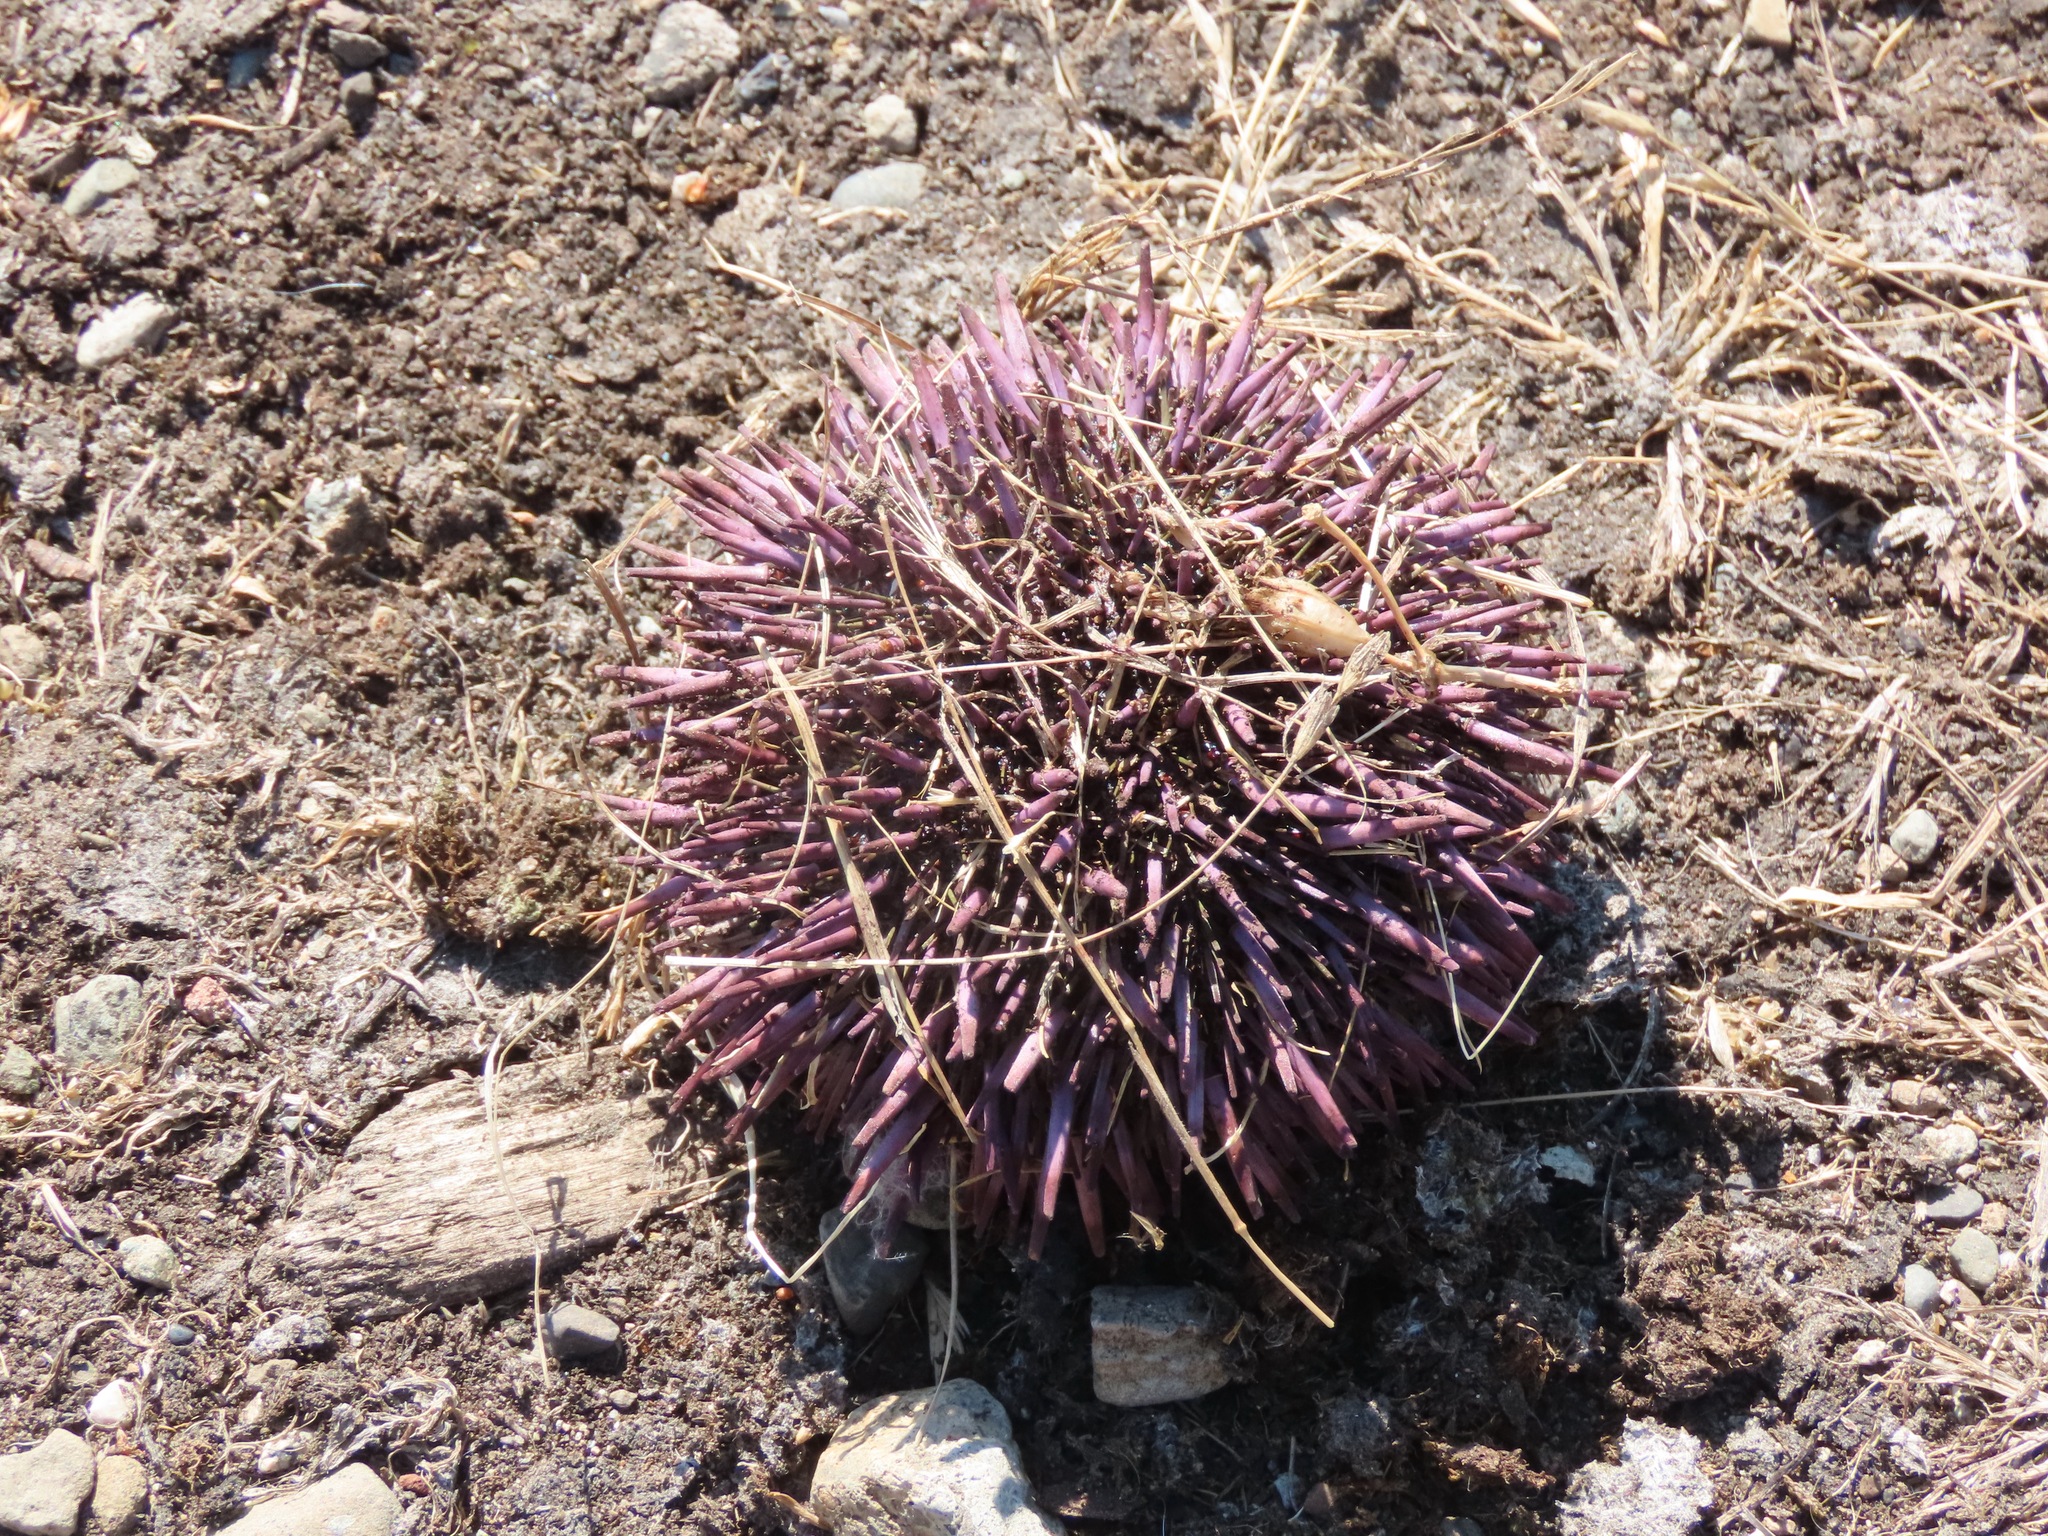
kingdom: Animalia
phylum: Echinodermata
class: Echinoidea
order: Camarodonta
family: Strongylocentrotidae
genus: Strongylocentrotus
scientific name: Strongylocentrotus purpuratus
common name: Purple sea urchin
